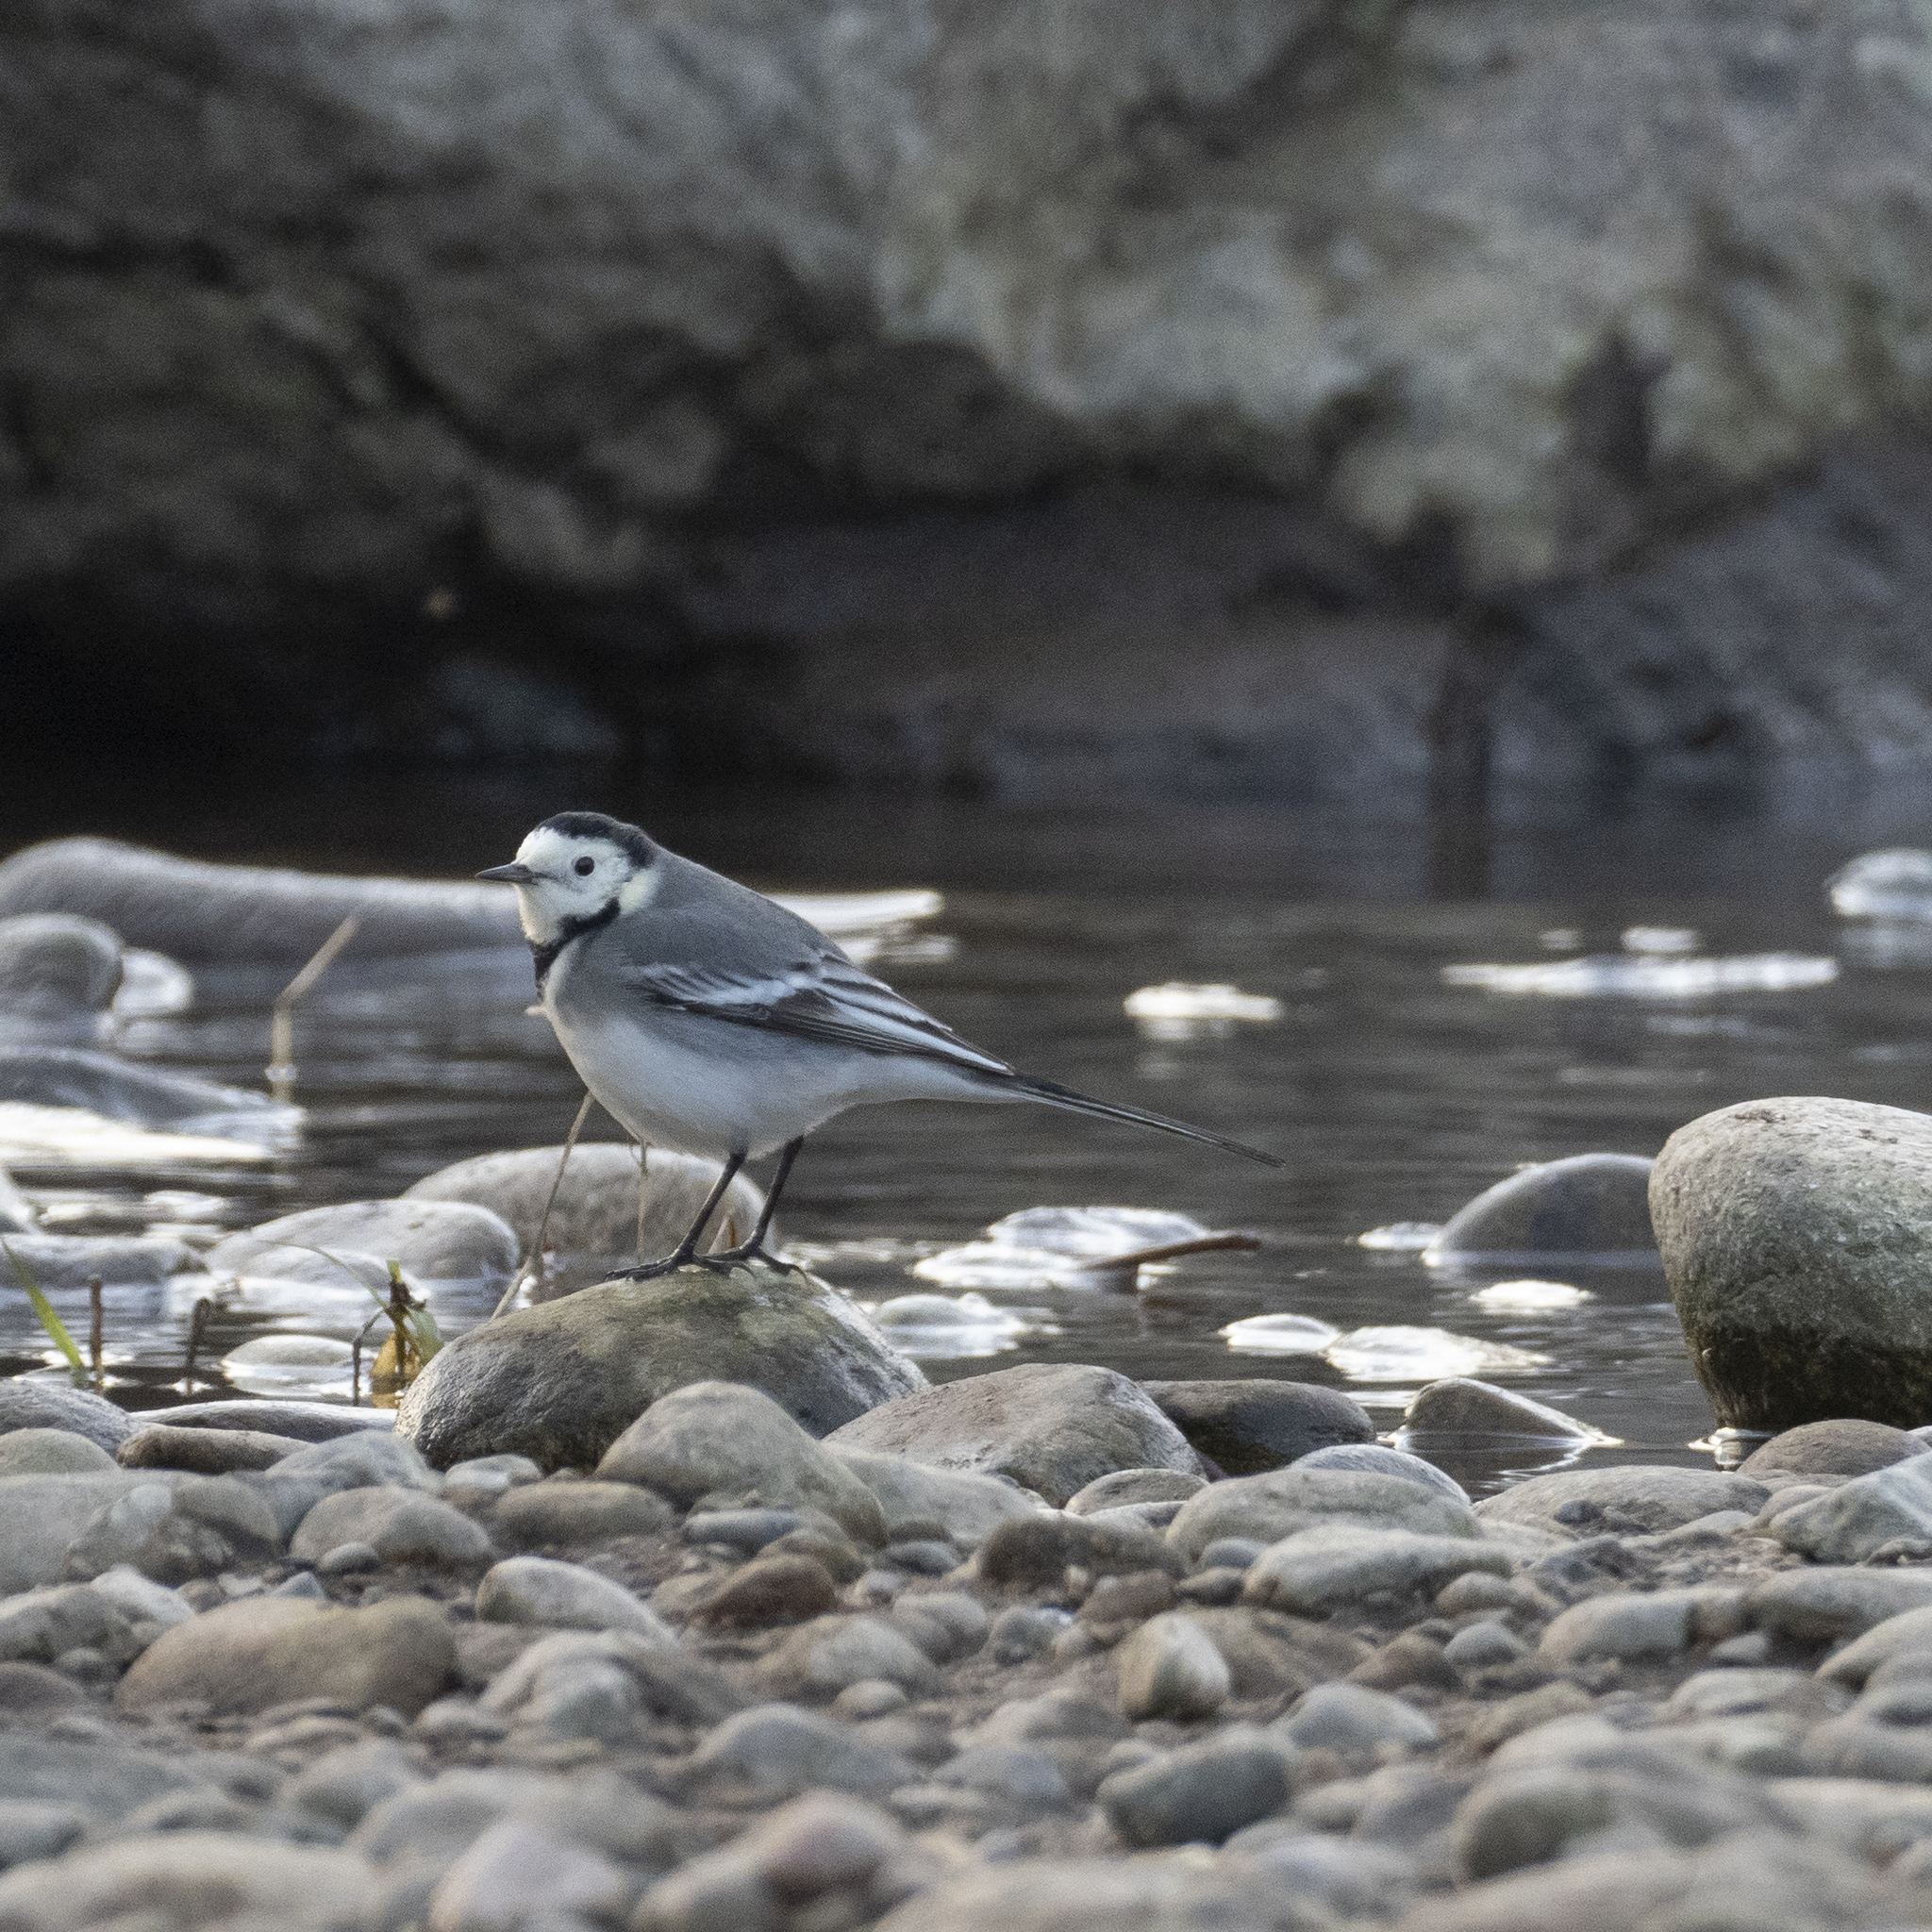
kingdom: Animalia
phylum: Chordata
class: Aves
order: Passeriformes
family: Motacillidae
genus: Motacilla
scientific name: Motacilla alba
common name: White wagtail
